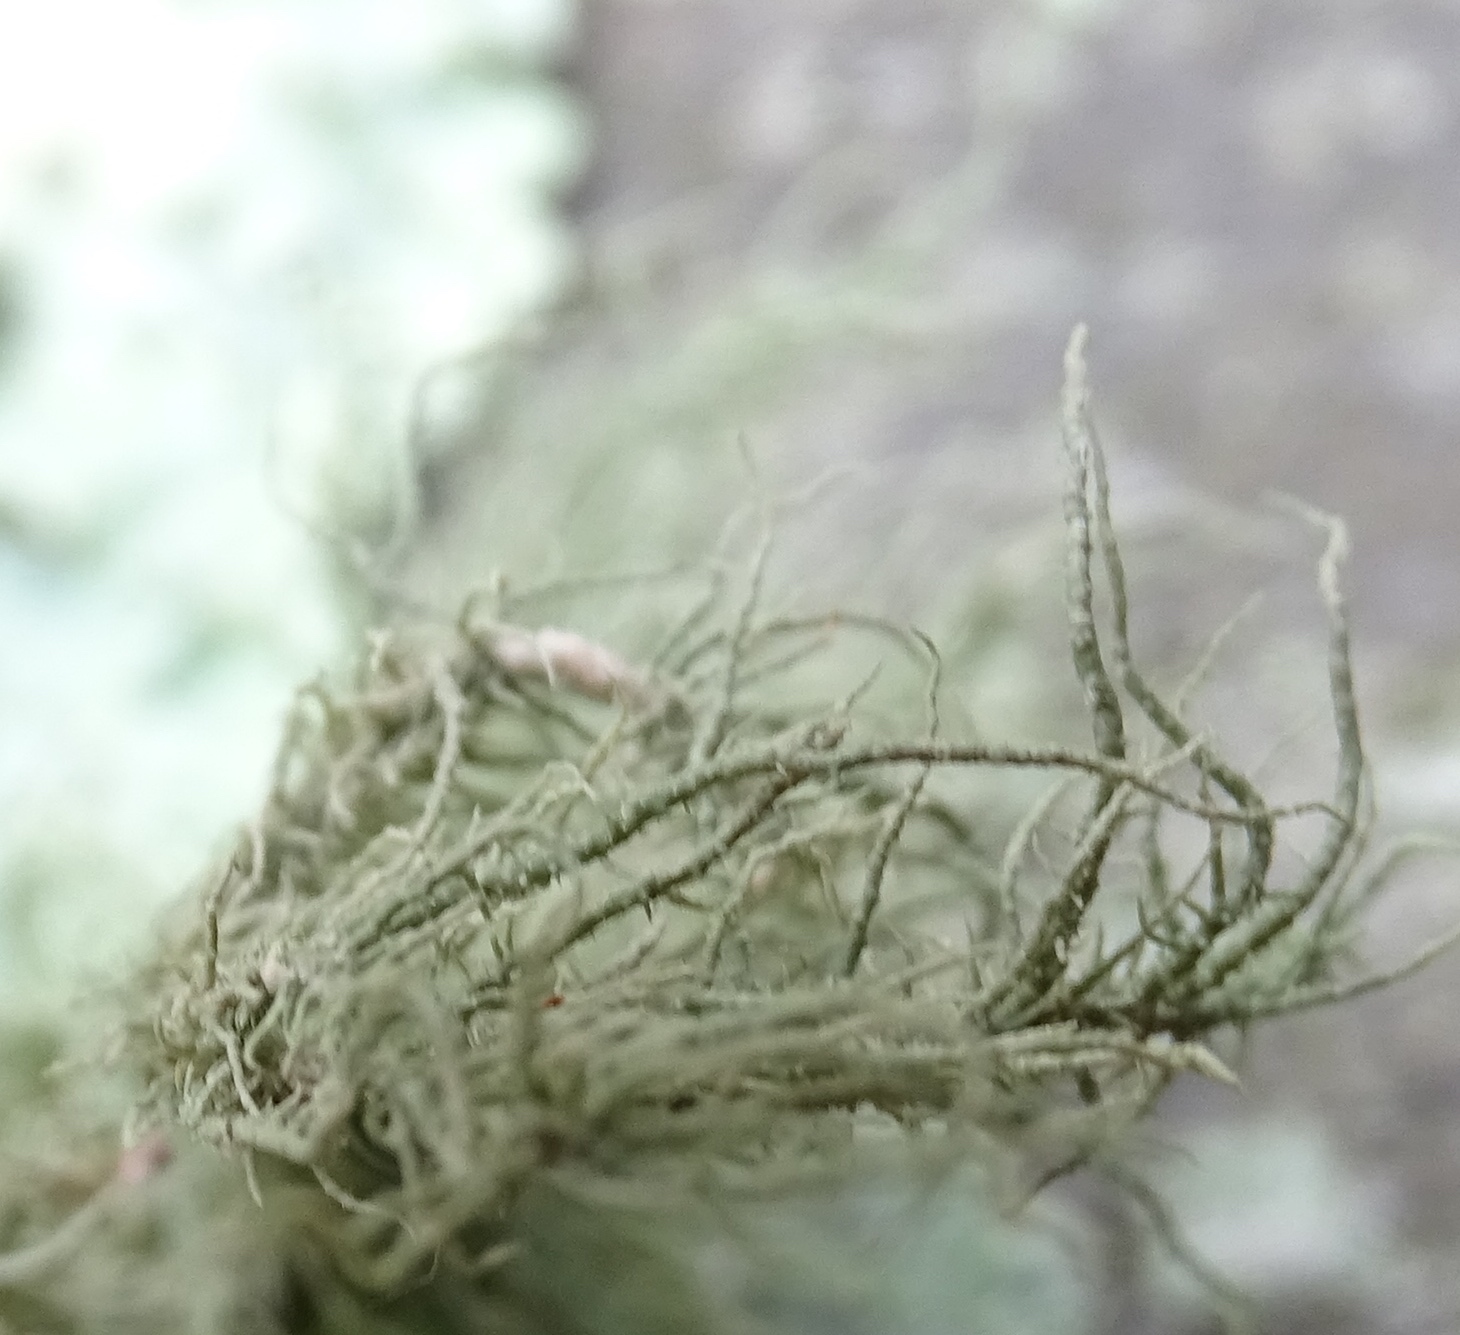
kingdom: Fungi
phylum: Ascomycota
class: Lecanoromycetes
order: Lecanorales
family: Parmeliaceae
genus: Usnea
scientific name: Usnea strigosa
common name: Bushy beard lichen
